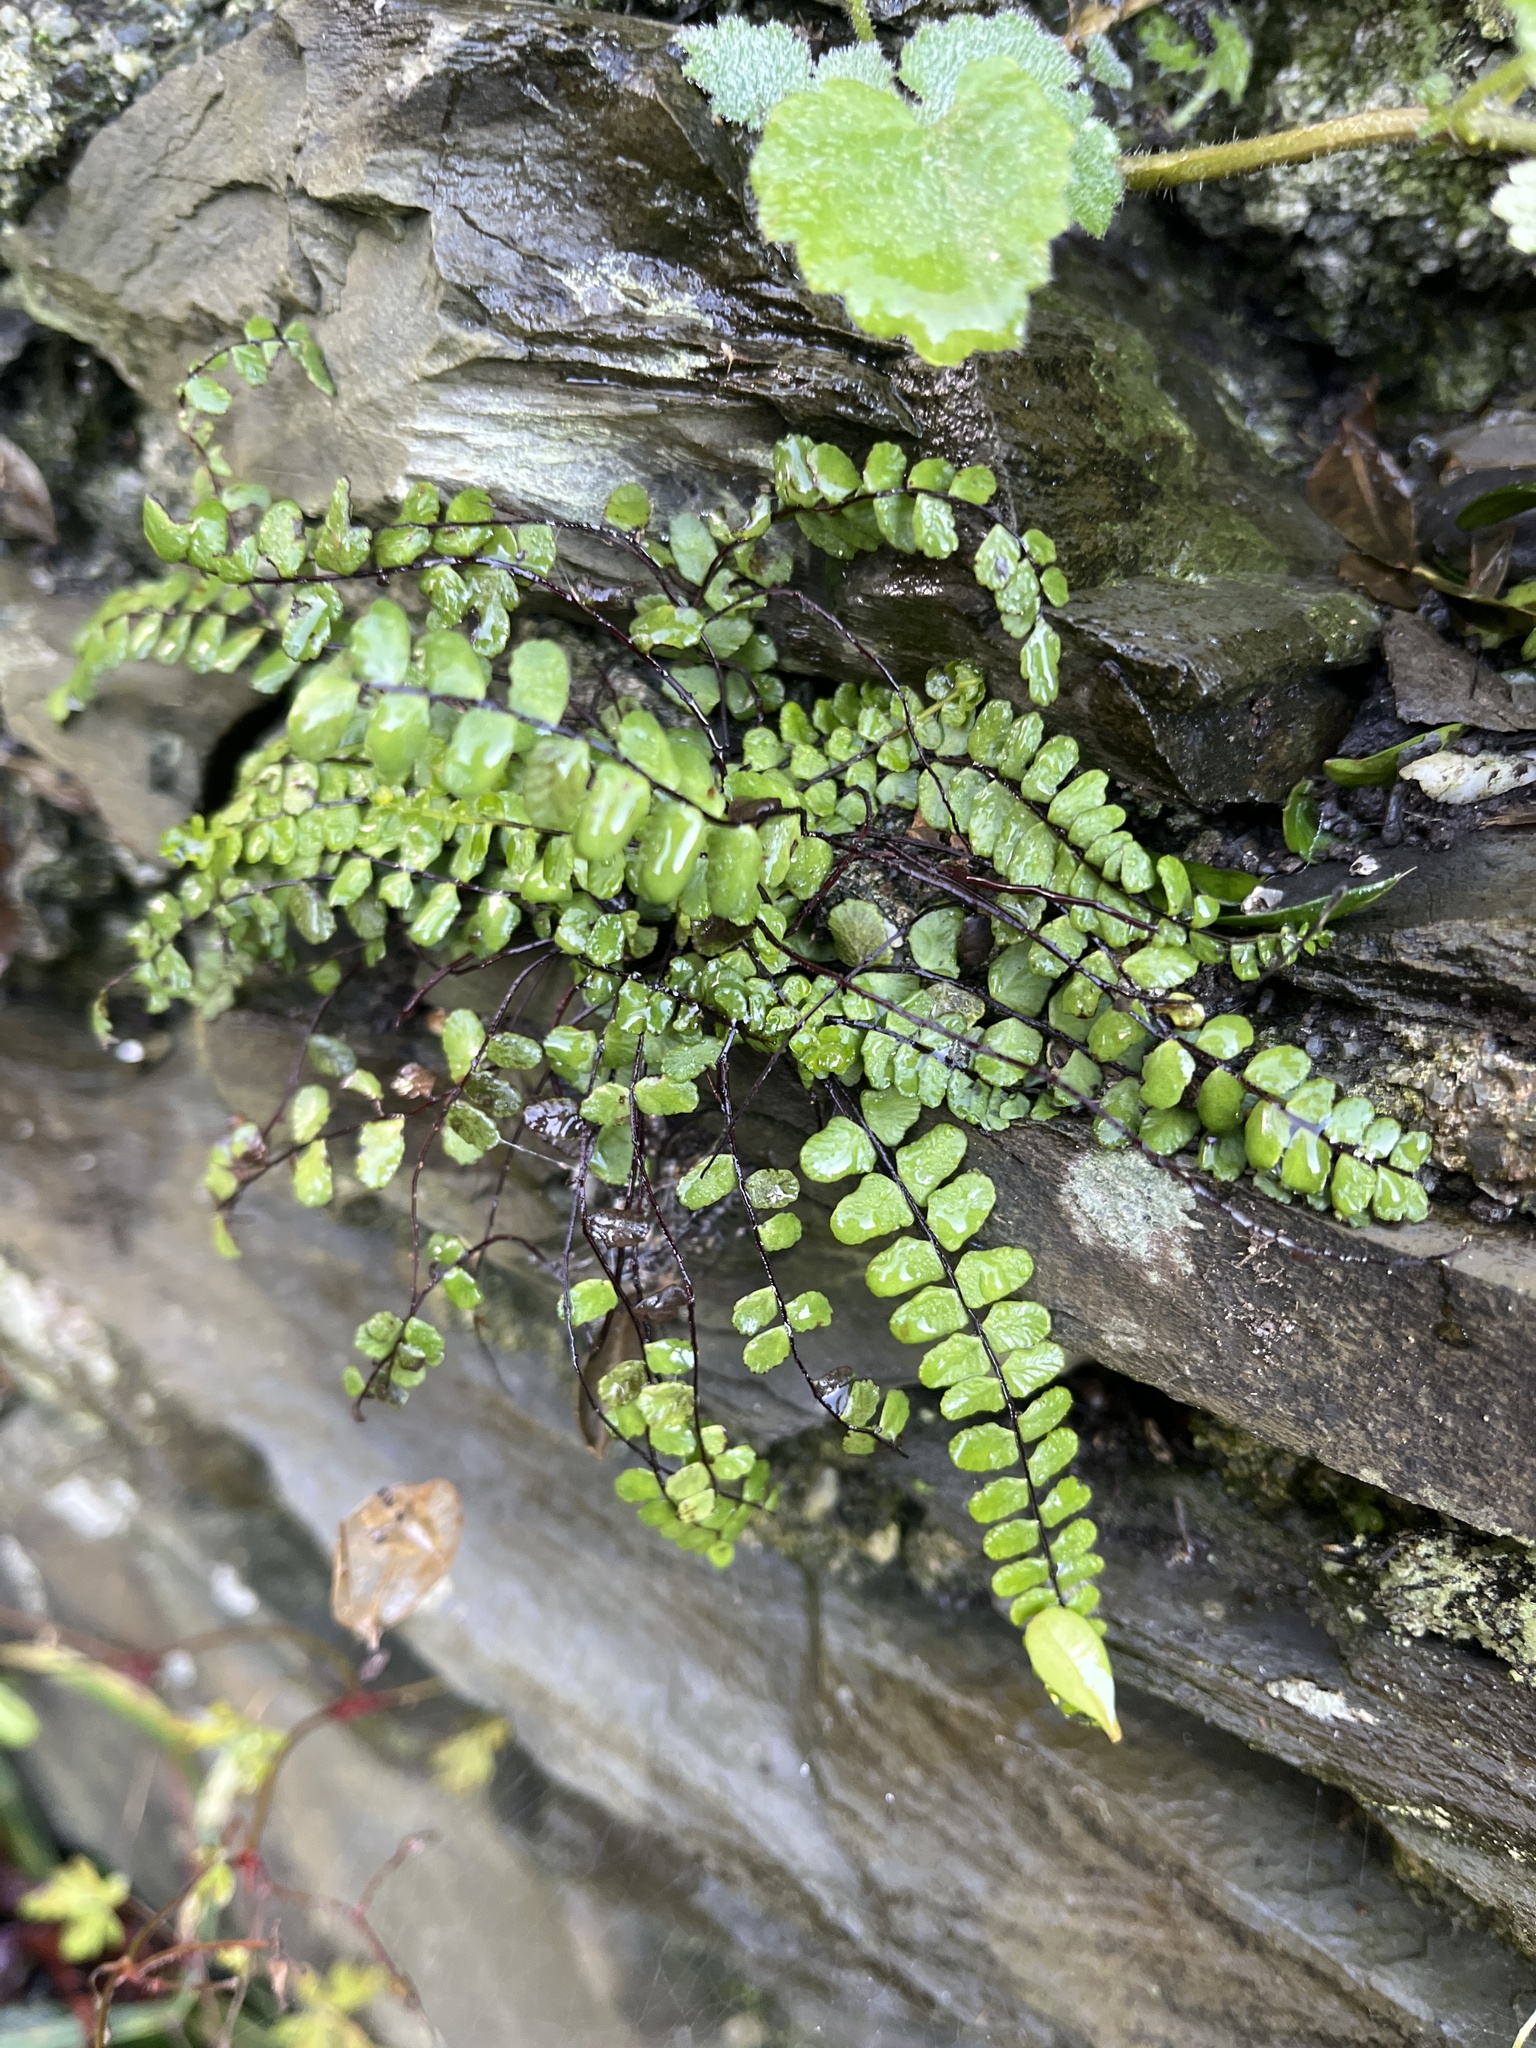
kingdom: Plantae
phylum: Tracheophyta
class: Polypodiopsida
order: Polypodiales
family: Aspleniaceae
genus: Asplenium
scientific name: Asplenium trichomanes
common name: Maidenhair spleenwort
